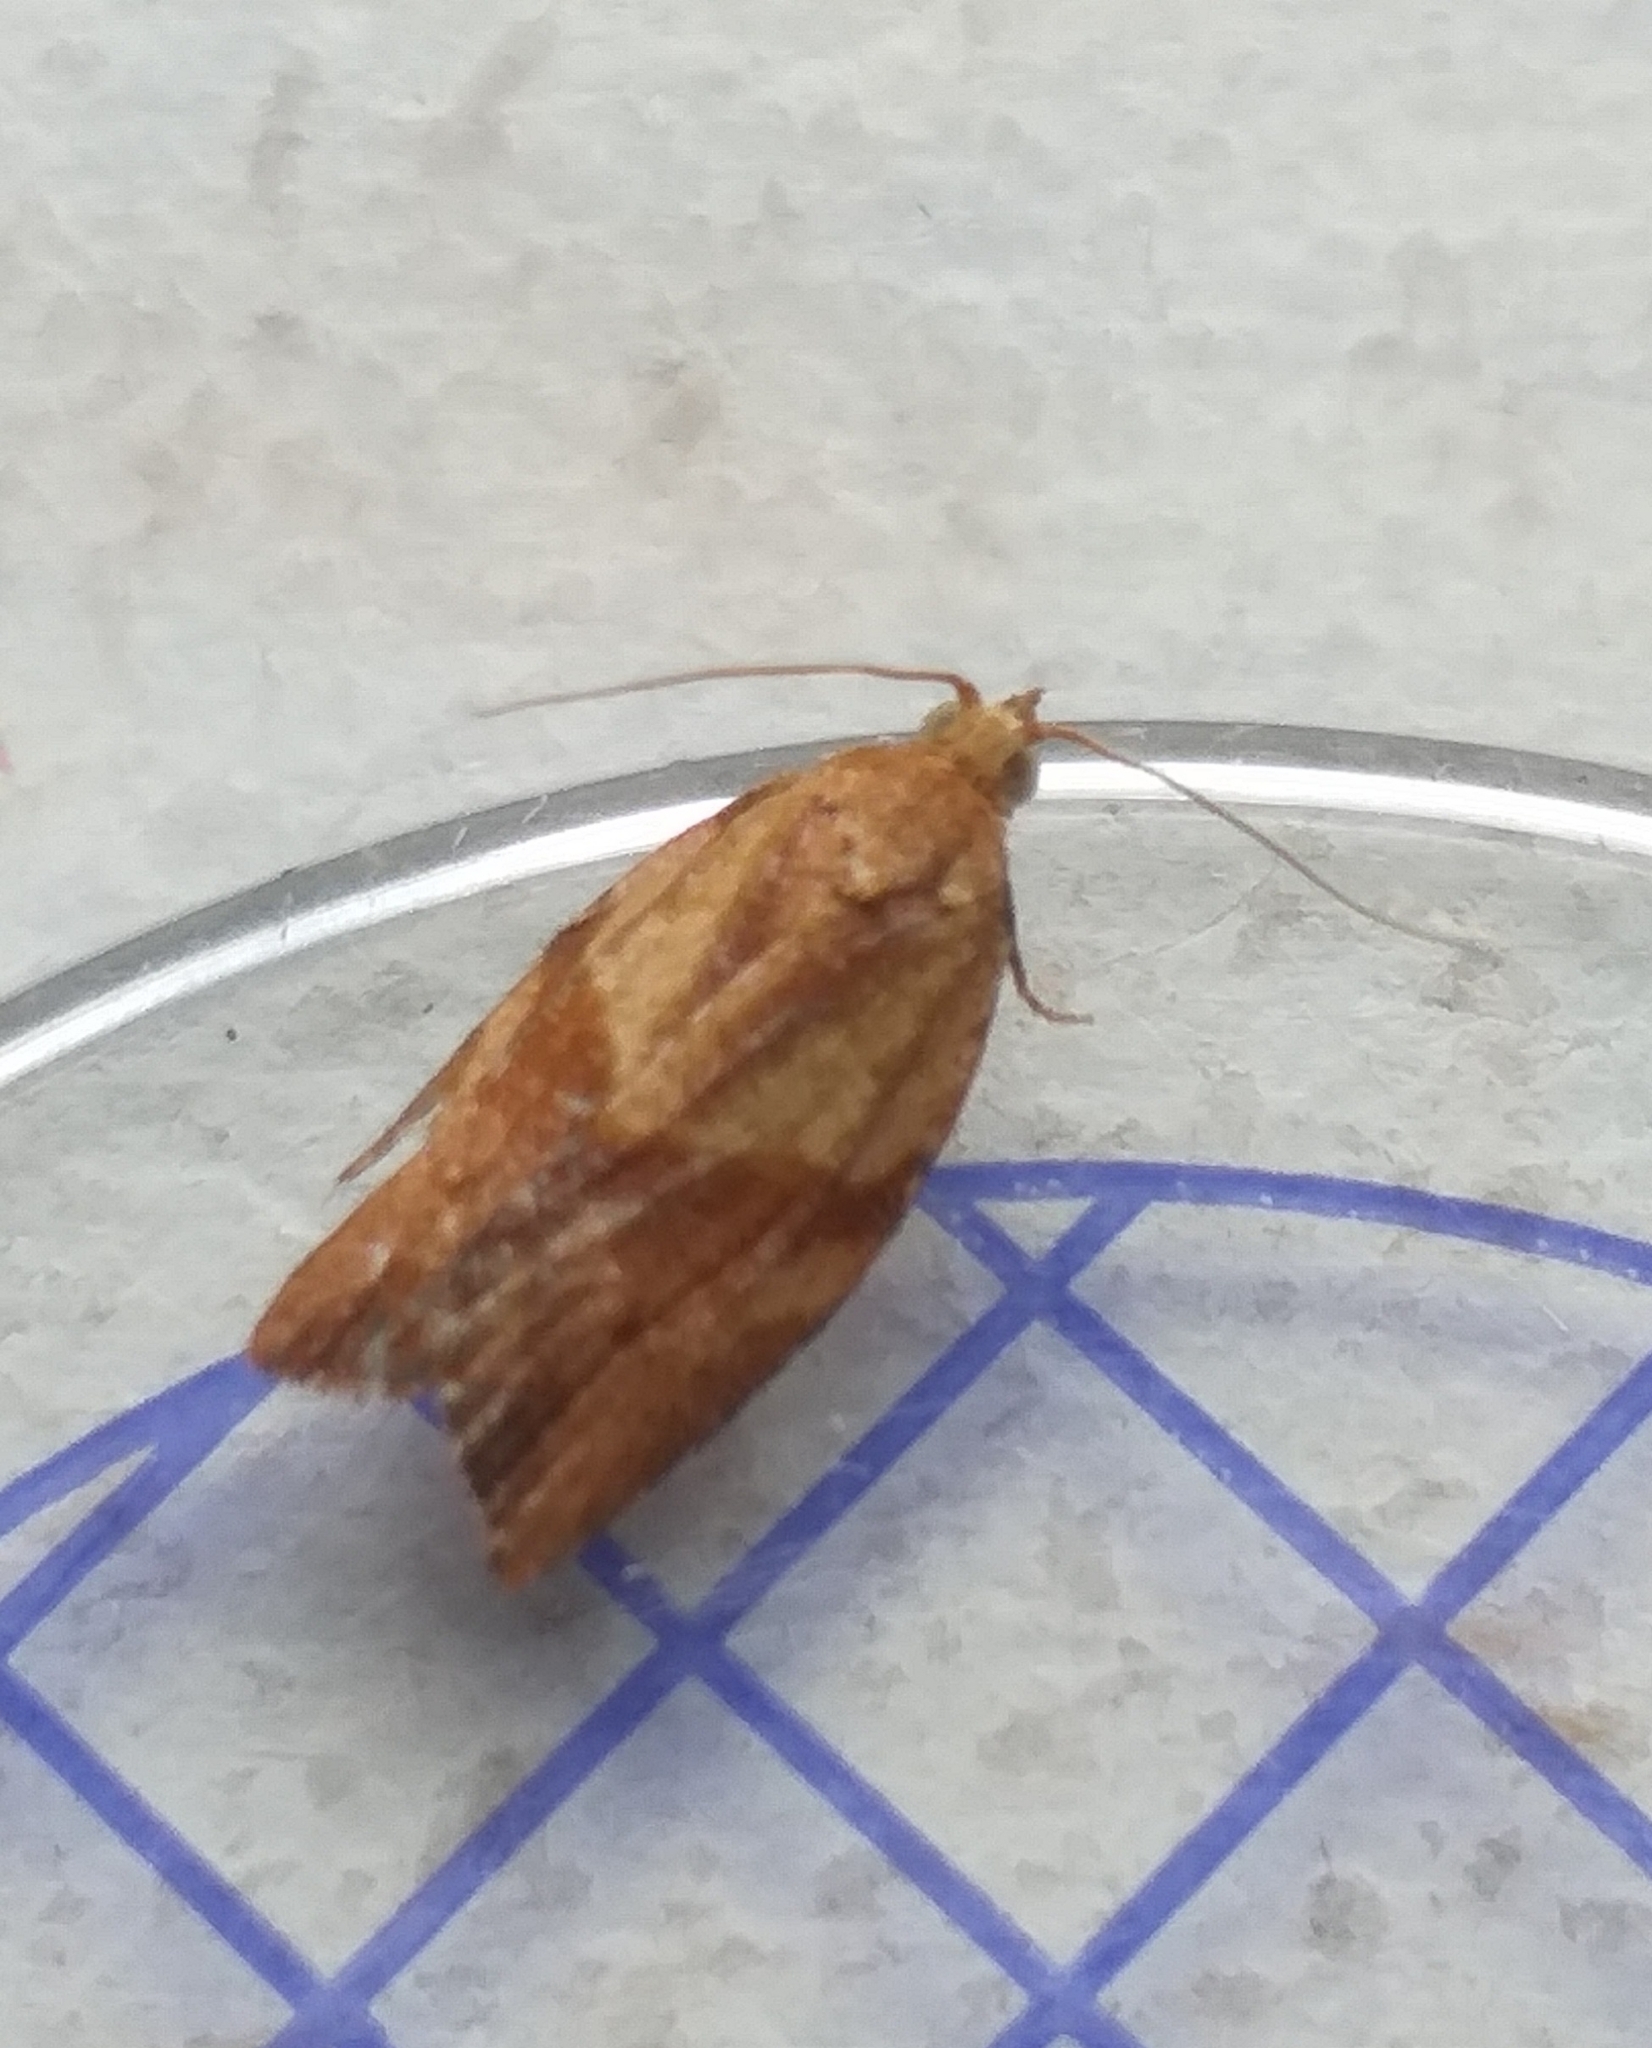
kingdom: Animalia
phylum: Arthropoda
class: Insecta
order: Lepidoptera
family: Tortricidae
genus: Epiphyas
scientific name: Epiphyas postvittana
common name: Light brown apple moth
